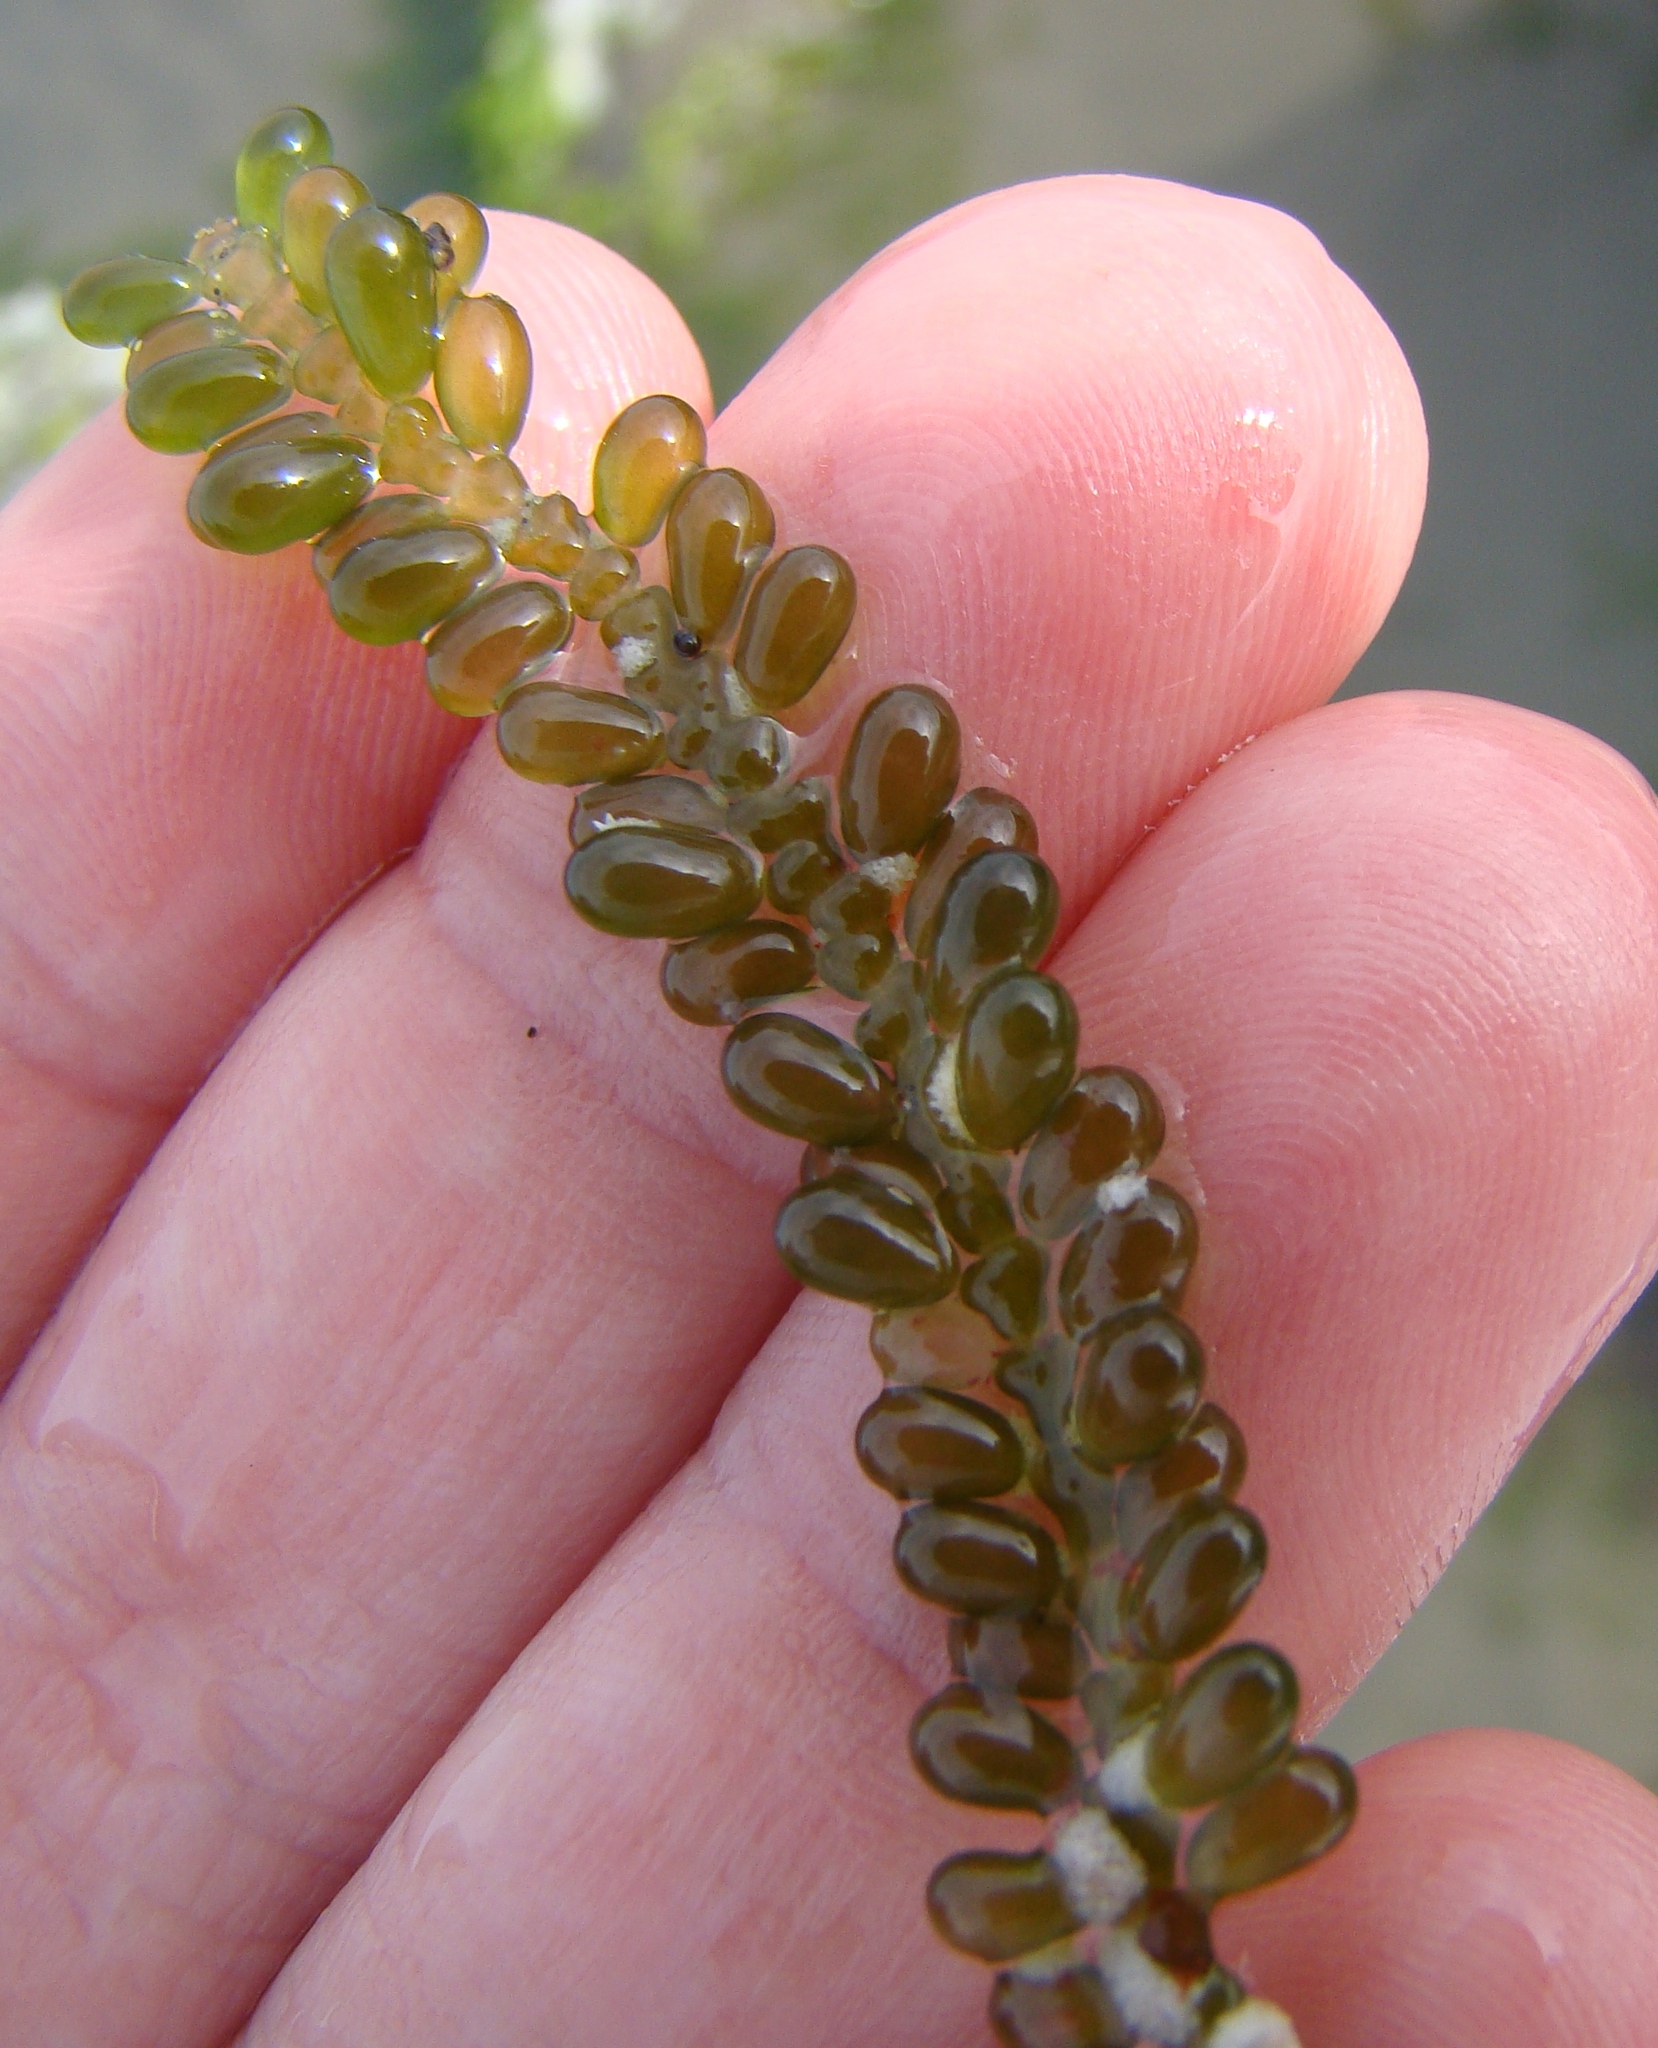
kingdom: Plantae
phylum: Chlorophyta
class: Ulvophyceae
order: Bryopsidales
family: Caulerpaceae
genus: Caulerpa
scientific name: Caulerpa geminata
